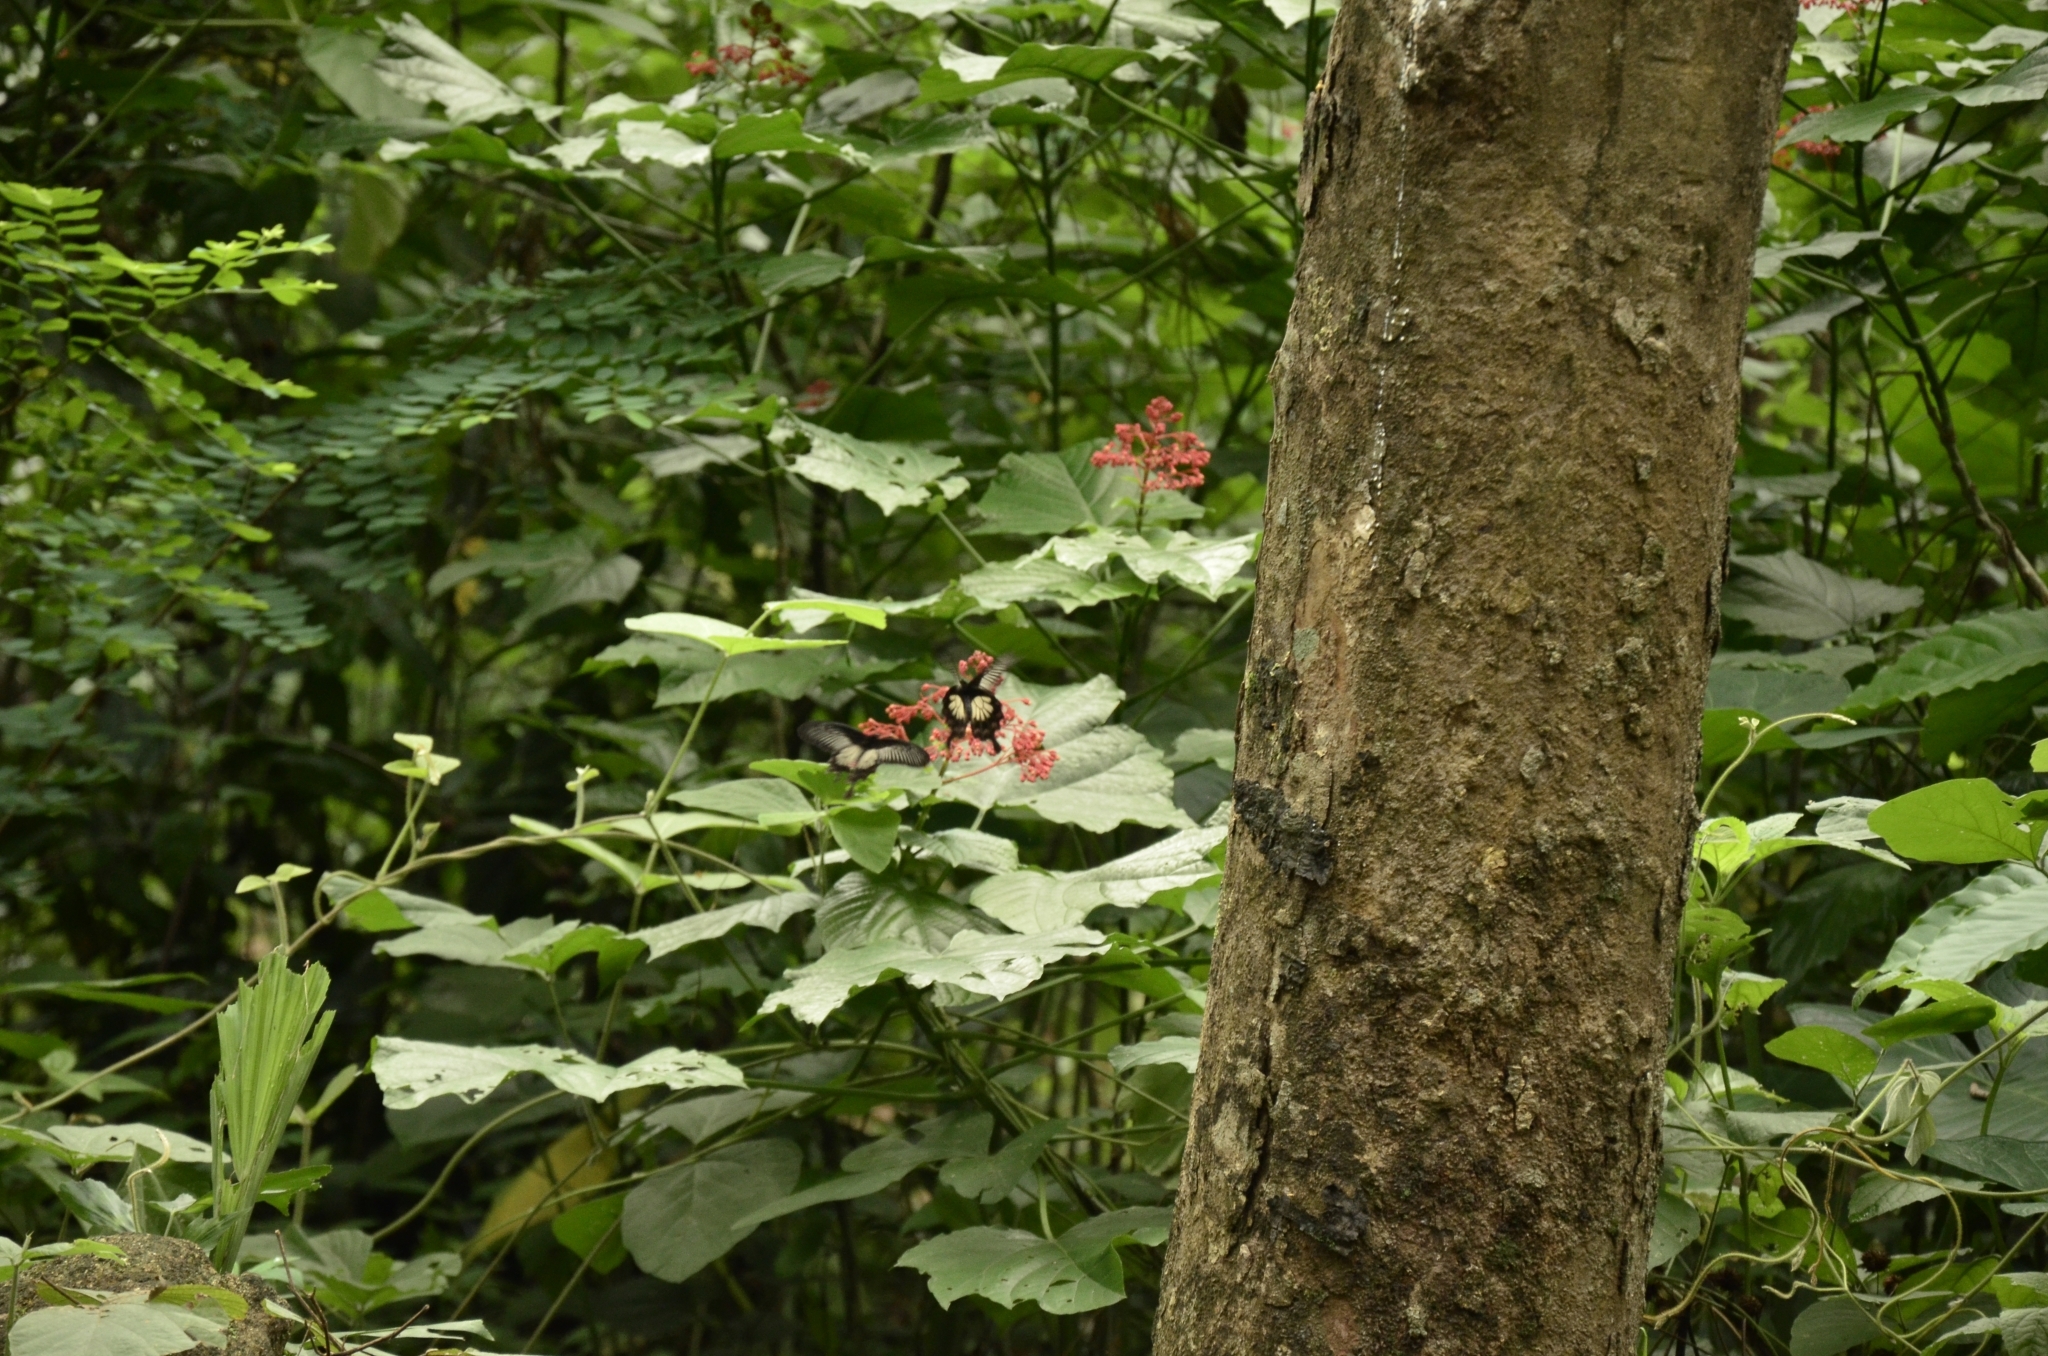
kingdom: Plantae
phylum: Tracheophyta
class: Magnoliopsida
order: Lamiales
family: Lamiaceae
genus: Clerodendrum
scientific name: Clerodendrum paniculatum
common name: Pagoda-flower
